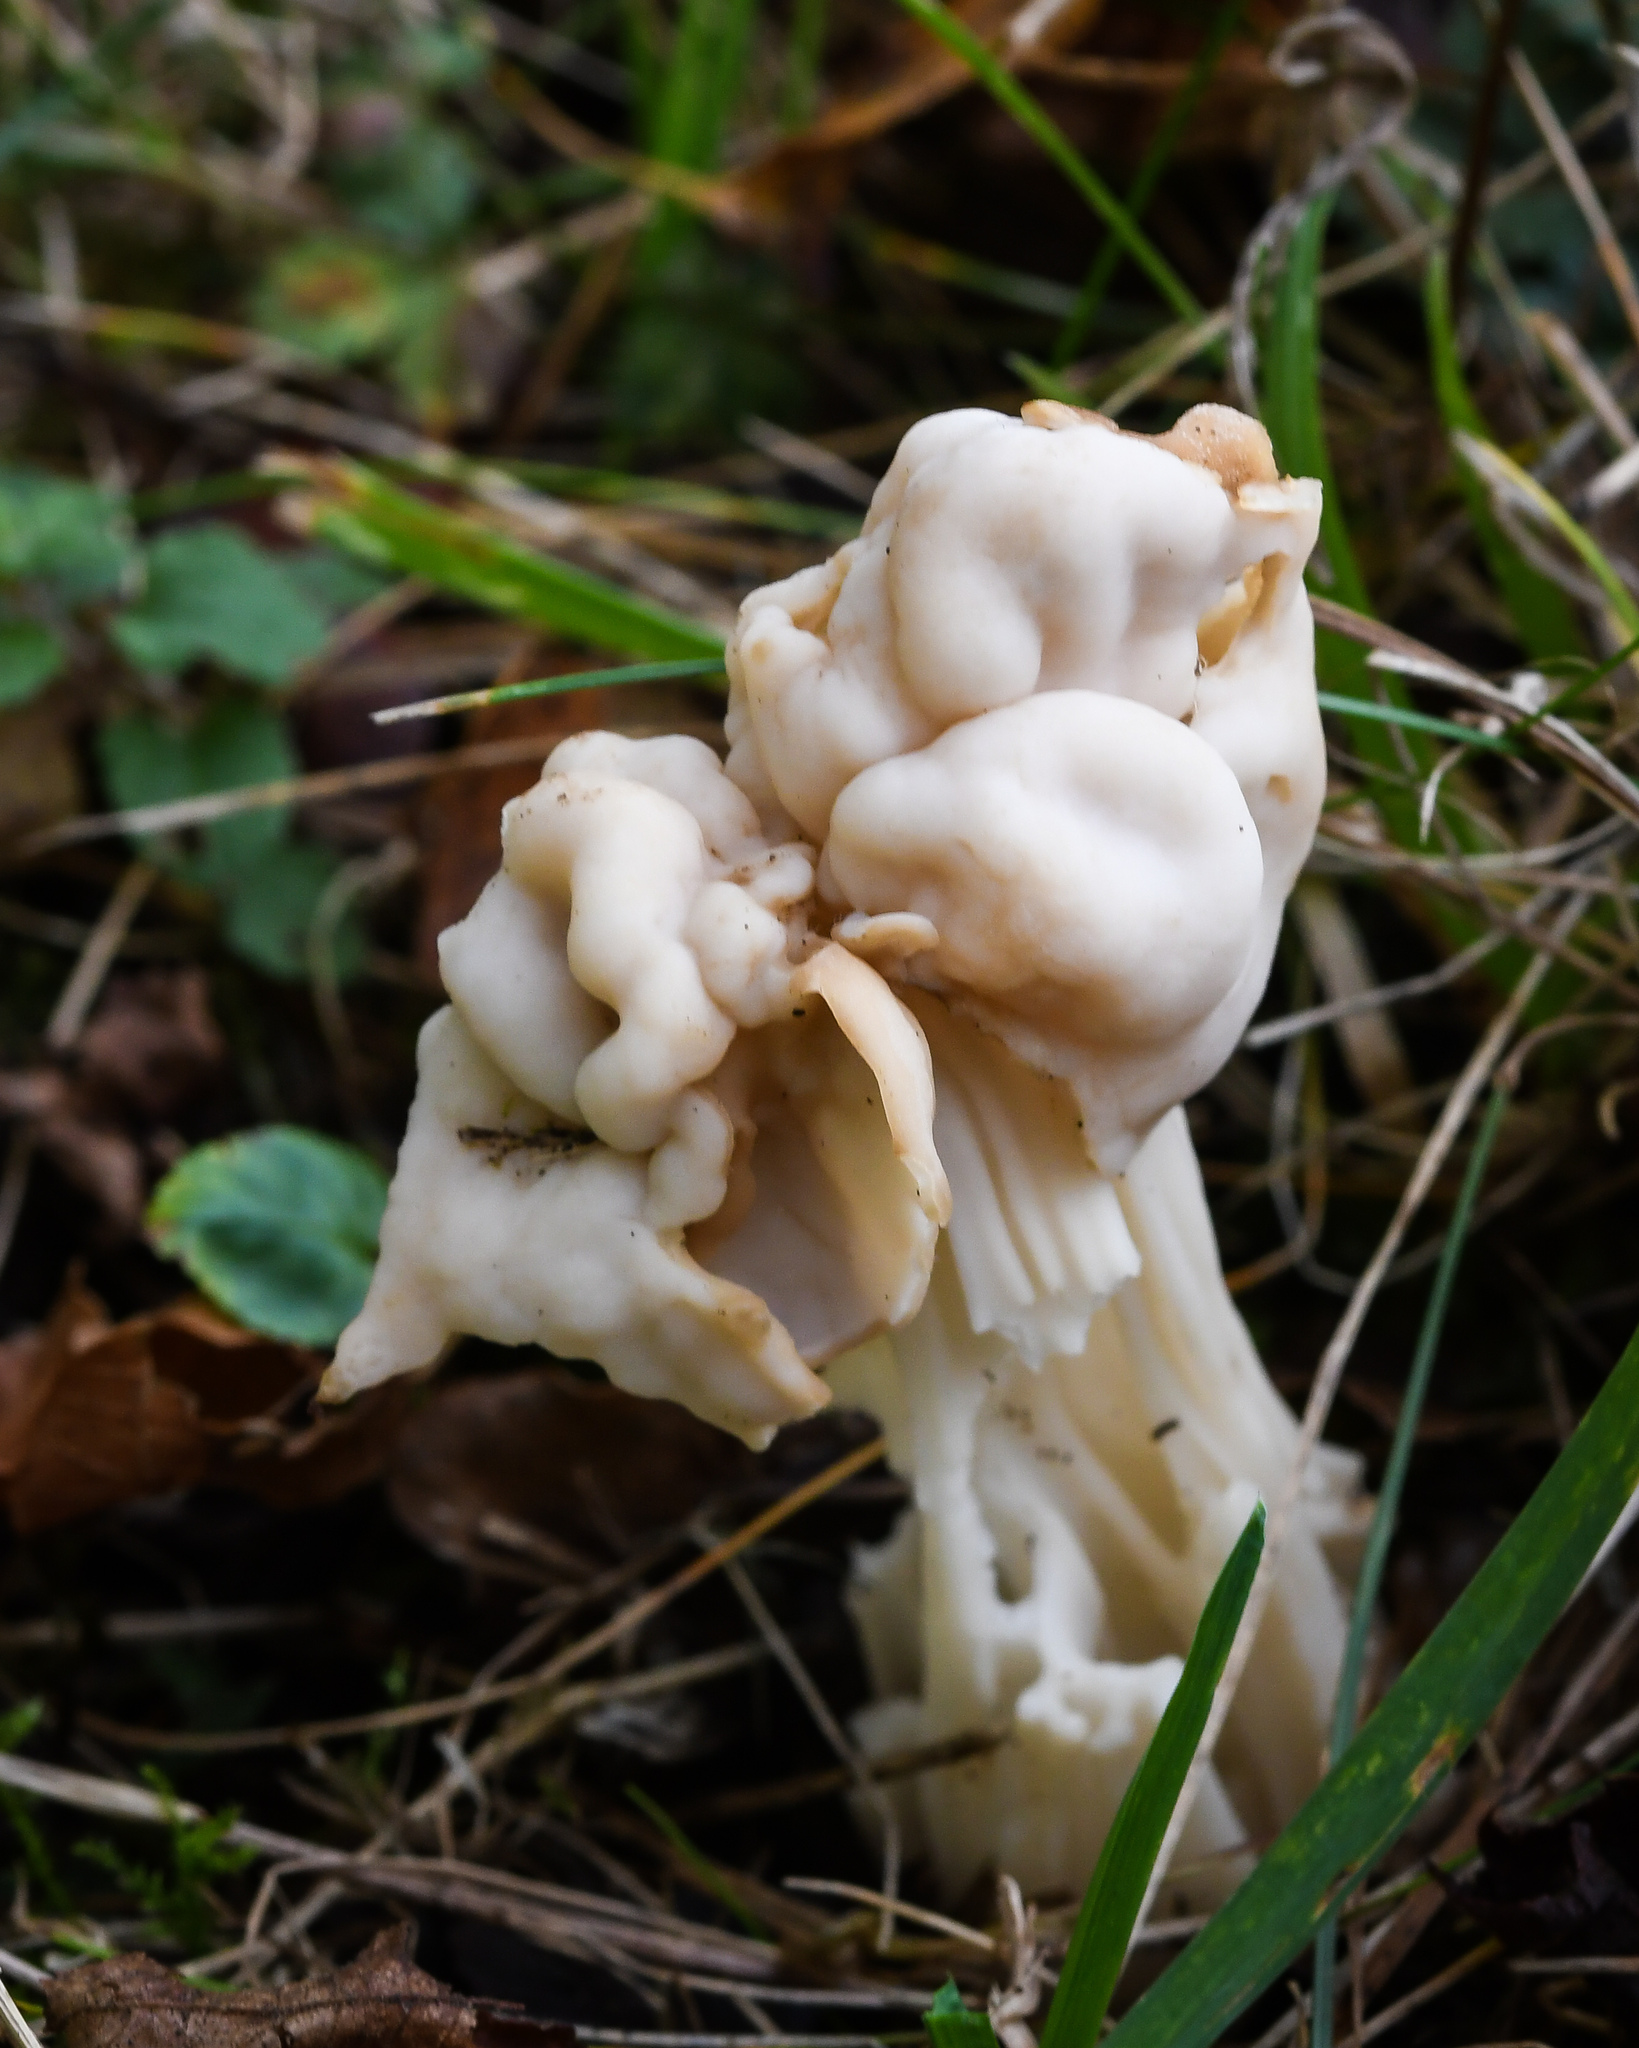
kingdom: Fungi
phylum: Ascomycota
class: Pezizomycetes
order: Pezizales
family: Helvellaceae
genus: Helvella
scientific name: Helvella crispa
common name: White saddle
